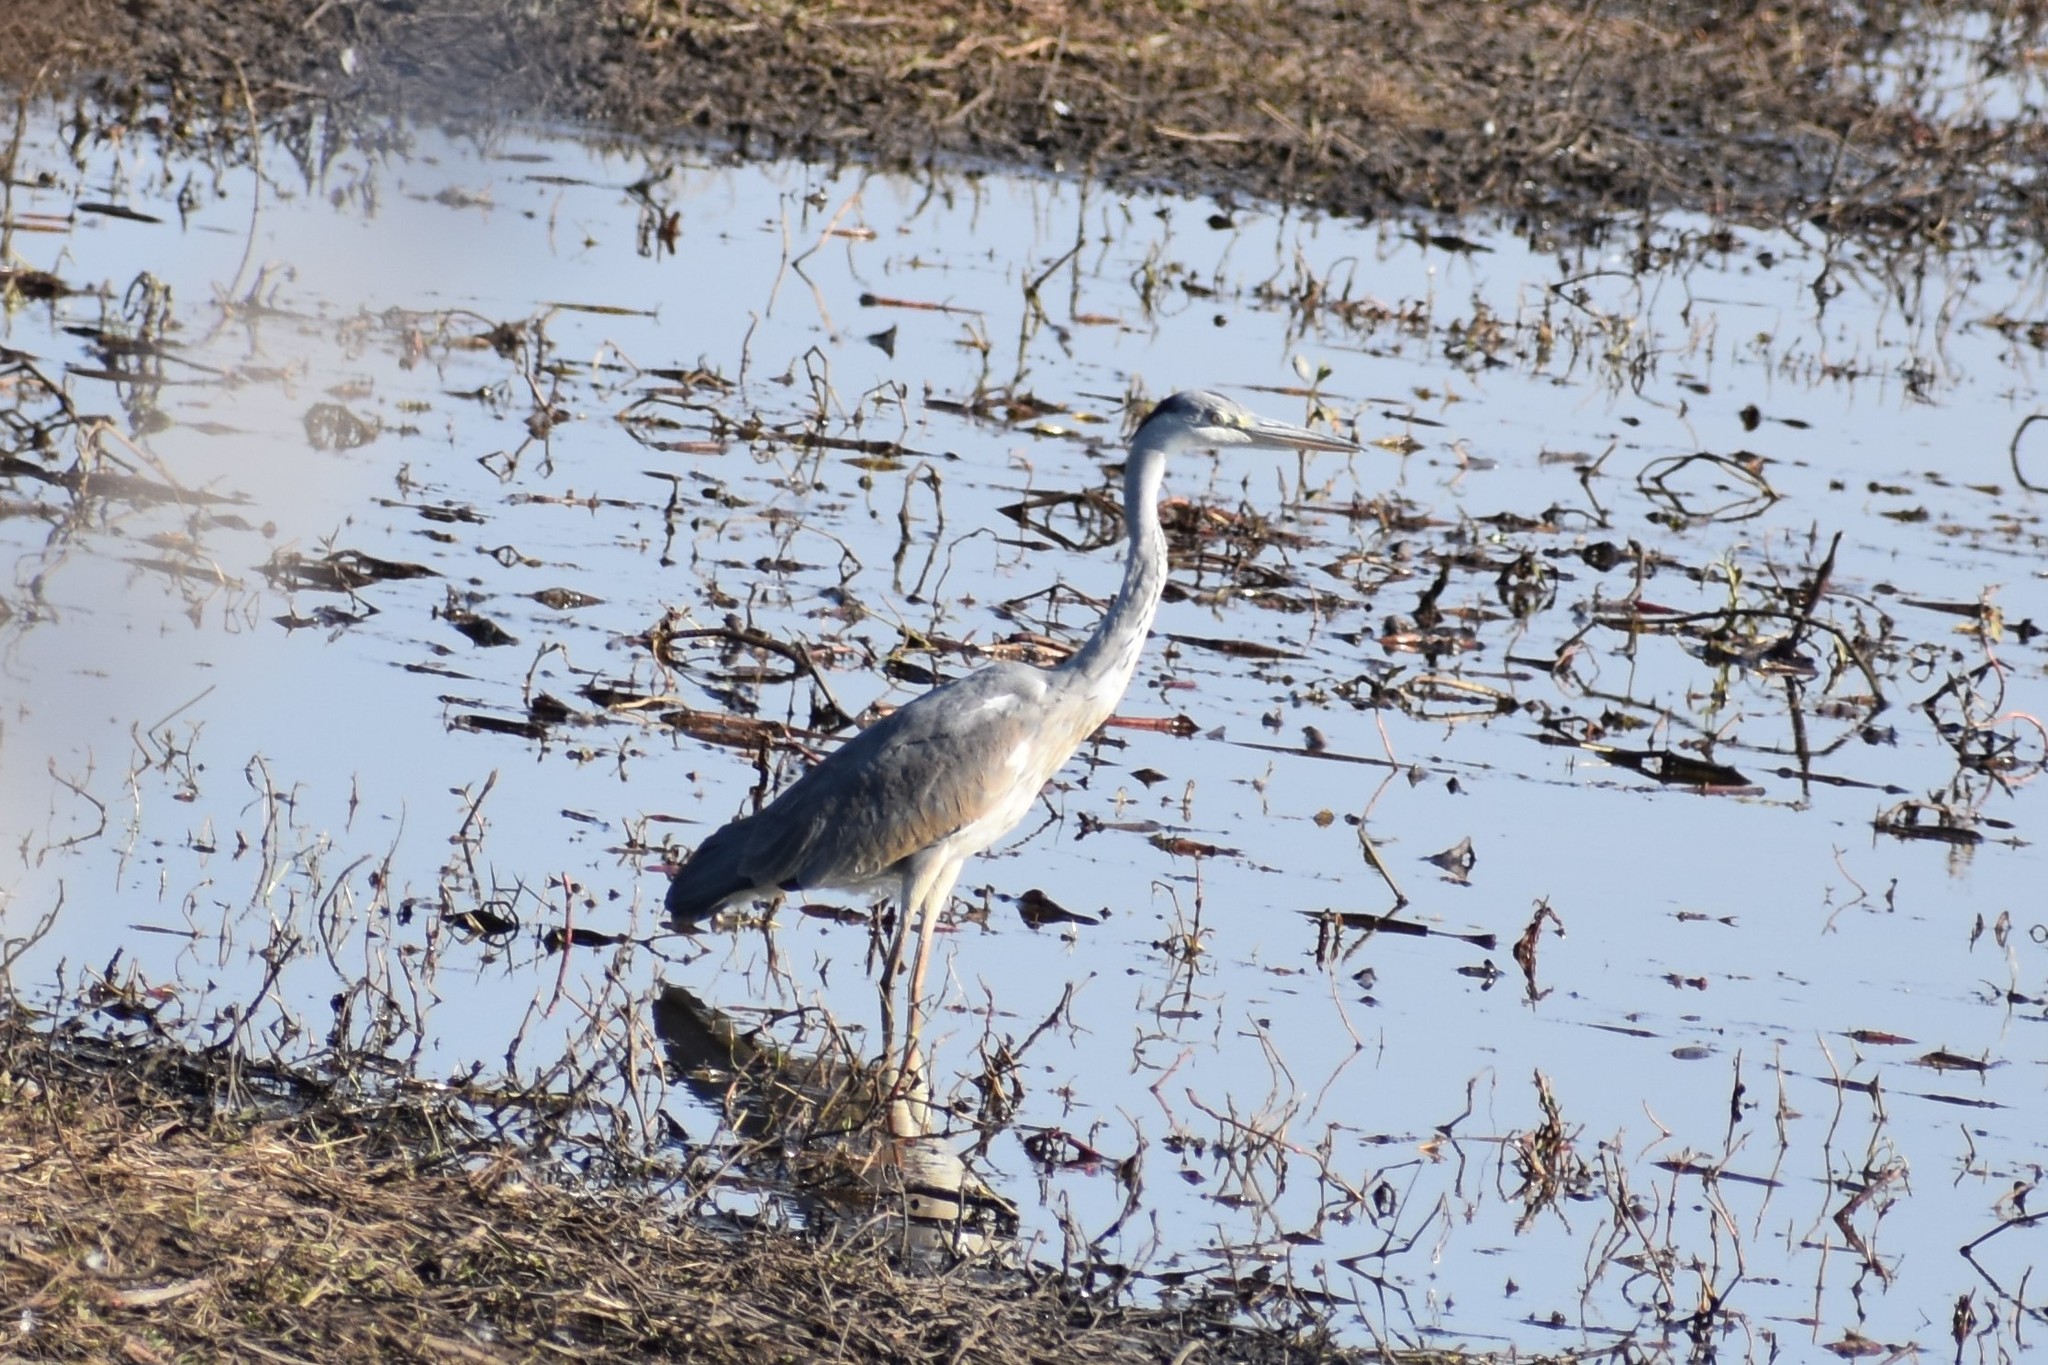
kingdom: Animalia
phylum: Chordata
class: Aves
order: Pelecaniformes
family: Ardeidae
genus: Ardea
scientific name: Ardea cinerea
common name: Grey heron
